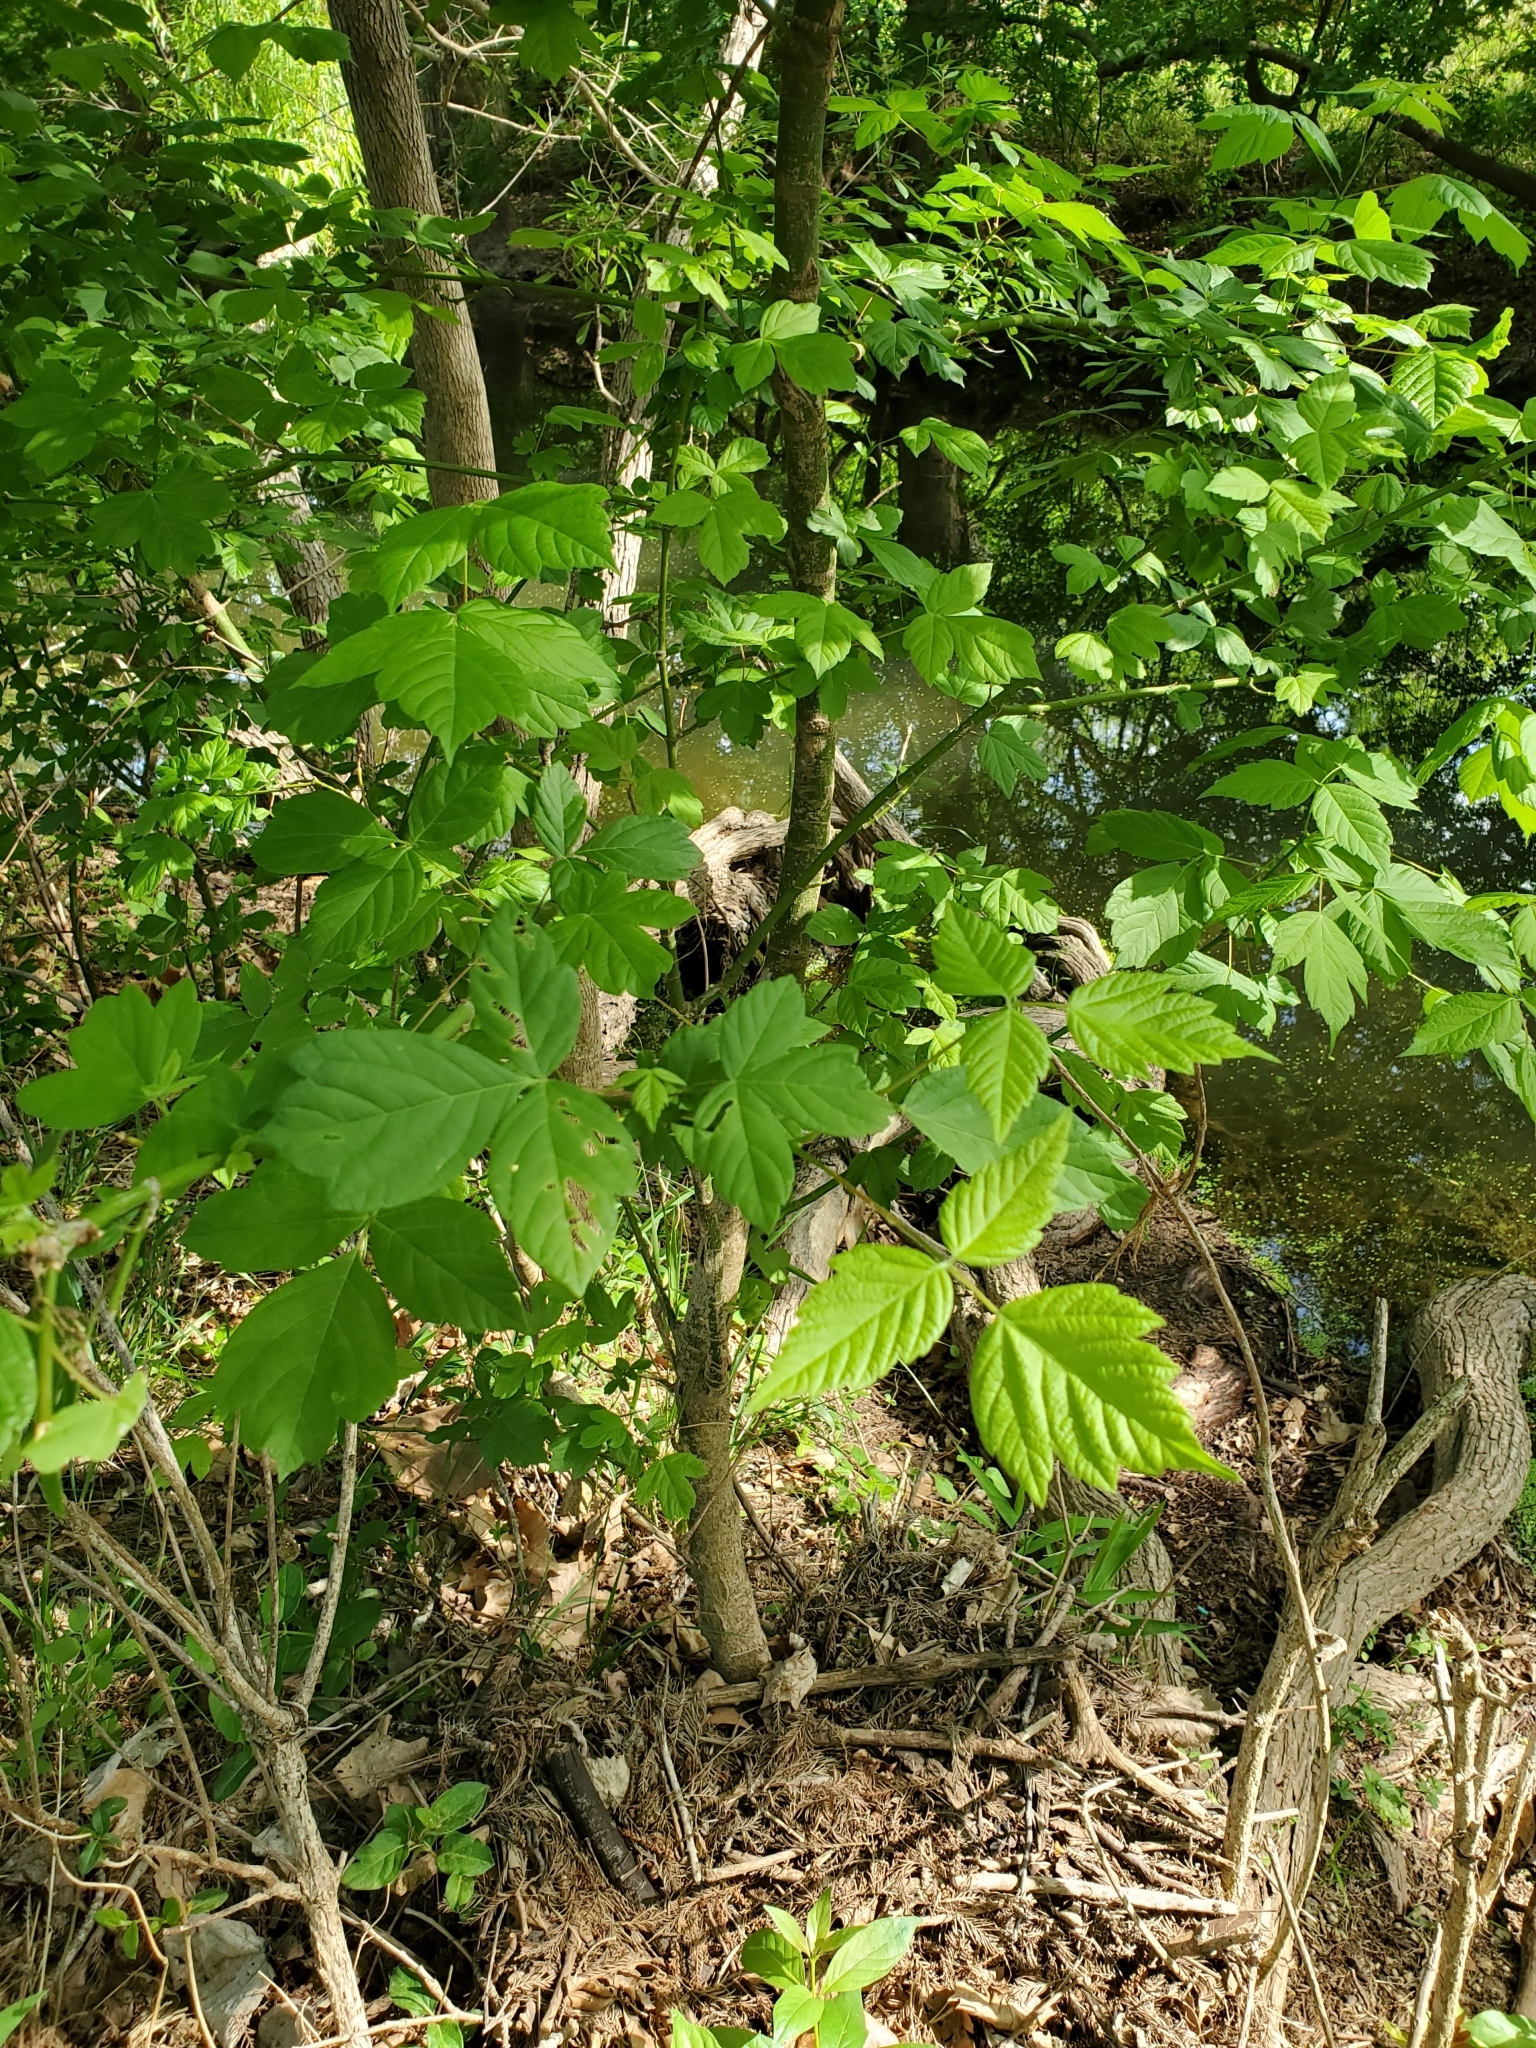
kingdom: Plantae
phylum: Tracheophyta
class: Magnoliopsida
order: Sapindales
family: Sapindaceae
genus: Acer
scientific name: Acer negundo
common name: Ashleaf maple
